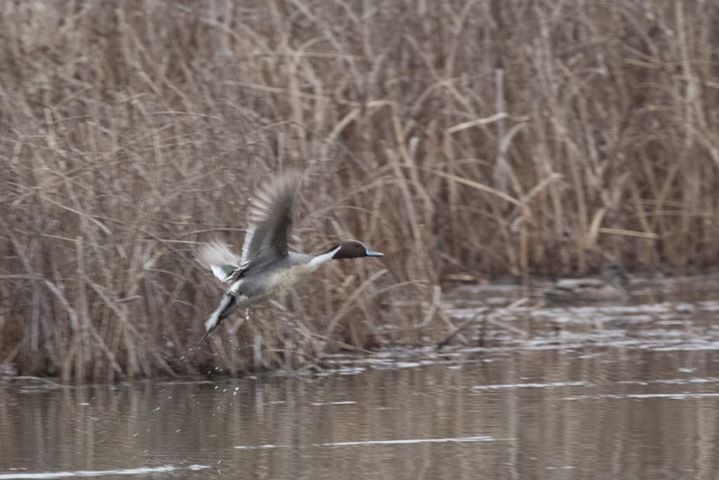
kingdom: Animalia
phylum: Chordata
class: Aves
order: Anseriformes
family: Anatidae
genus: Anas
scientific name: Anas acuta
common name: Northern pintail
